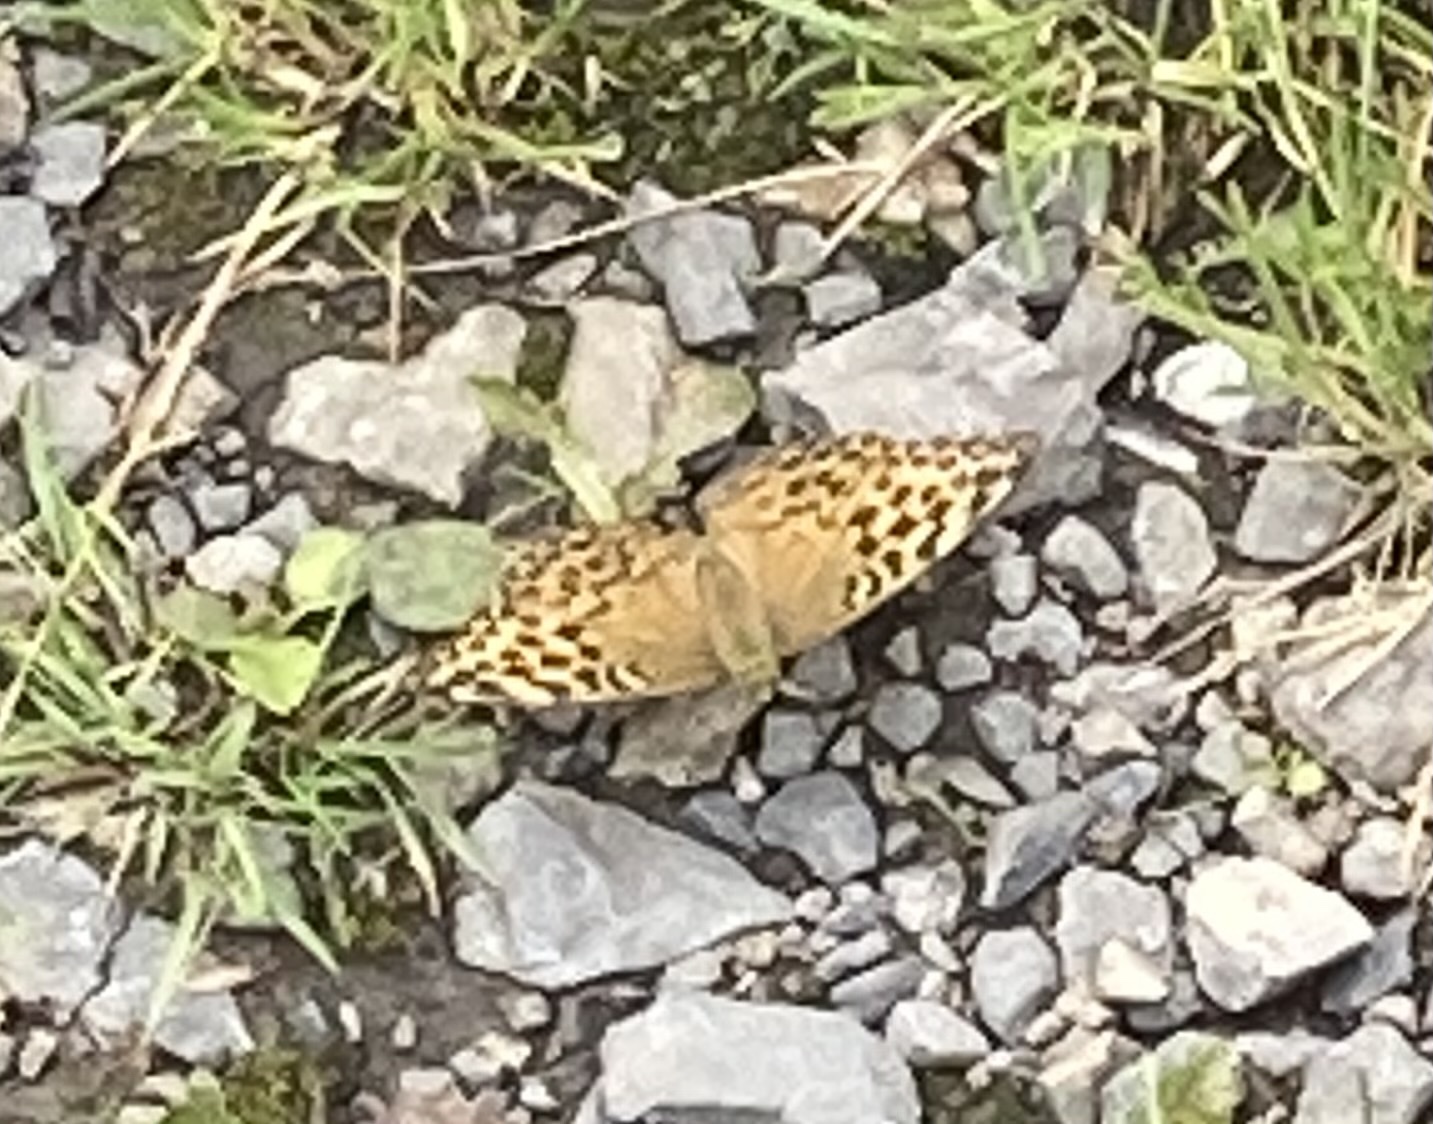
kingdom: Animalia
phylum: Arthropoda
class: Insecta
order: Lepidoptera
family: Nymphalidae
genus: Argynnis
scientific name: Argynnis paphia
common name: Silver-washed fritillary
